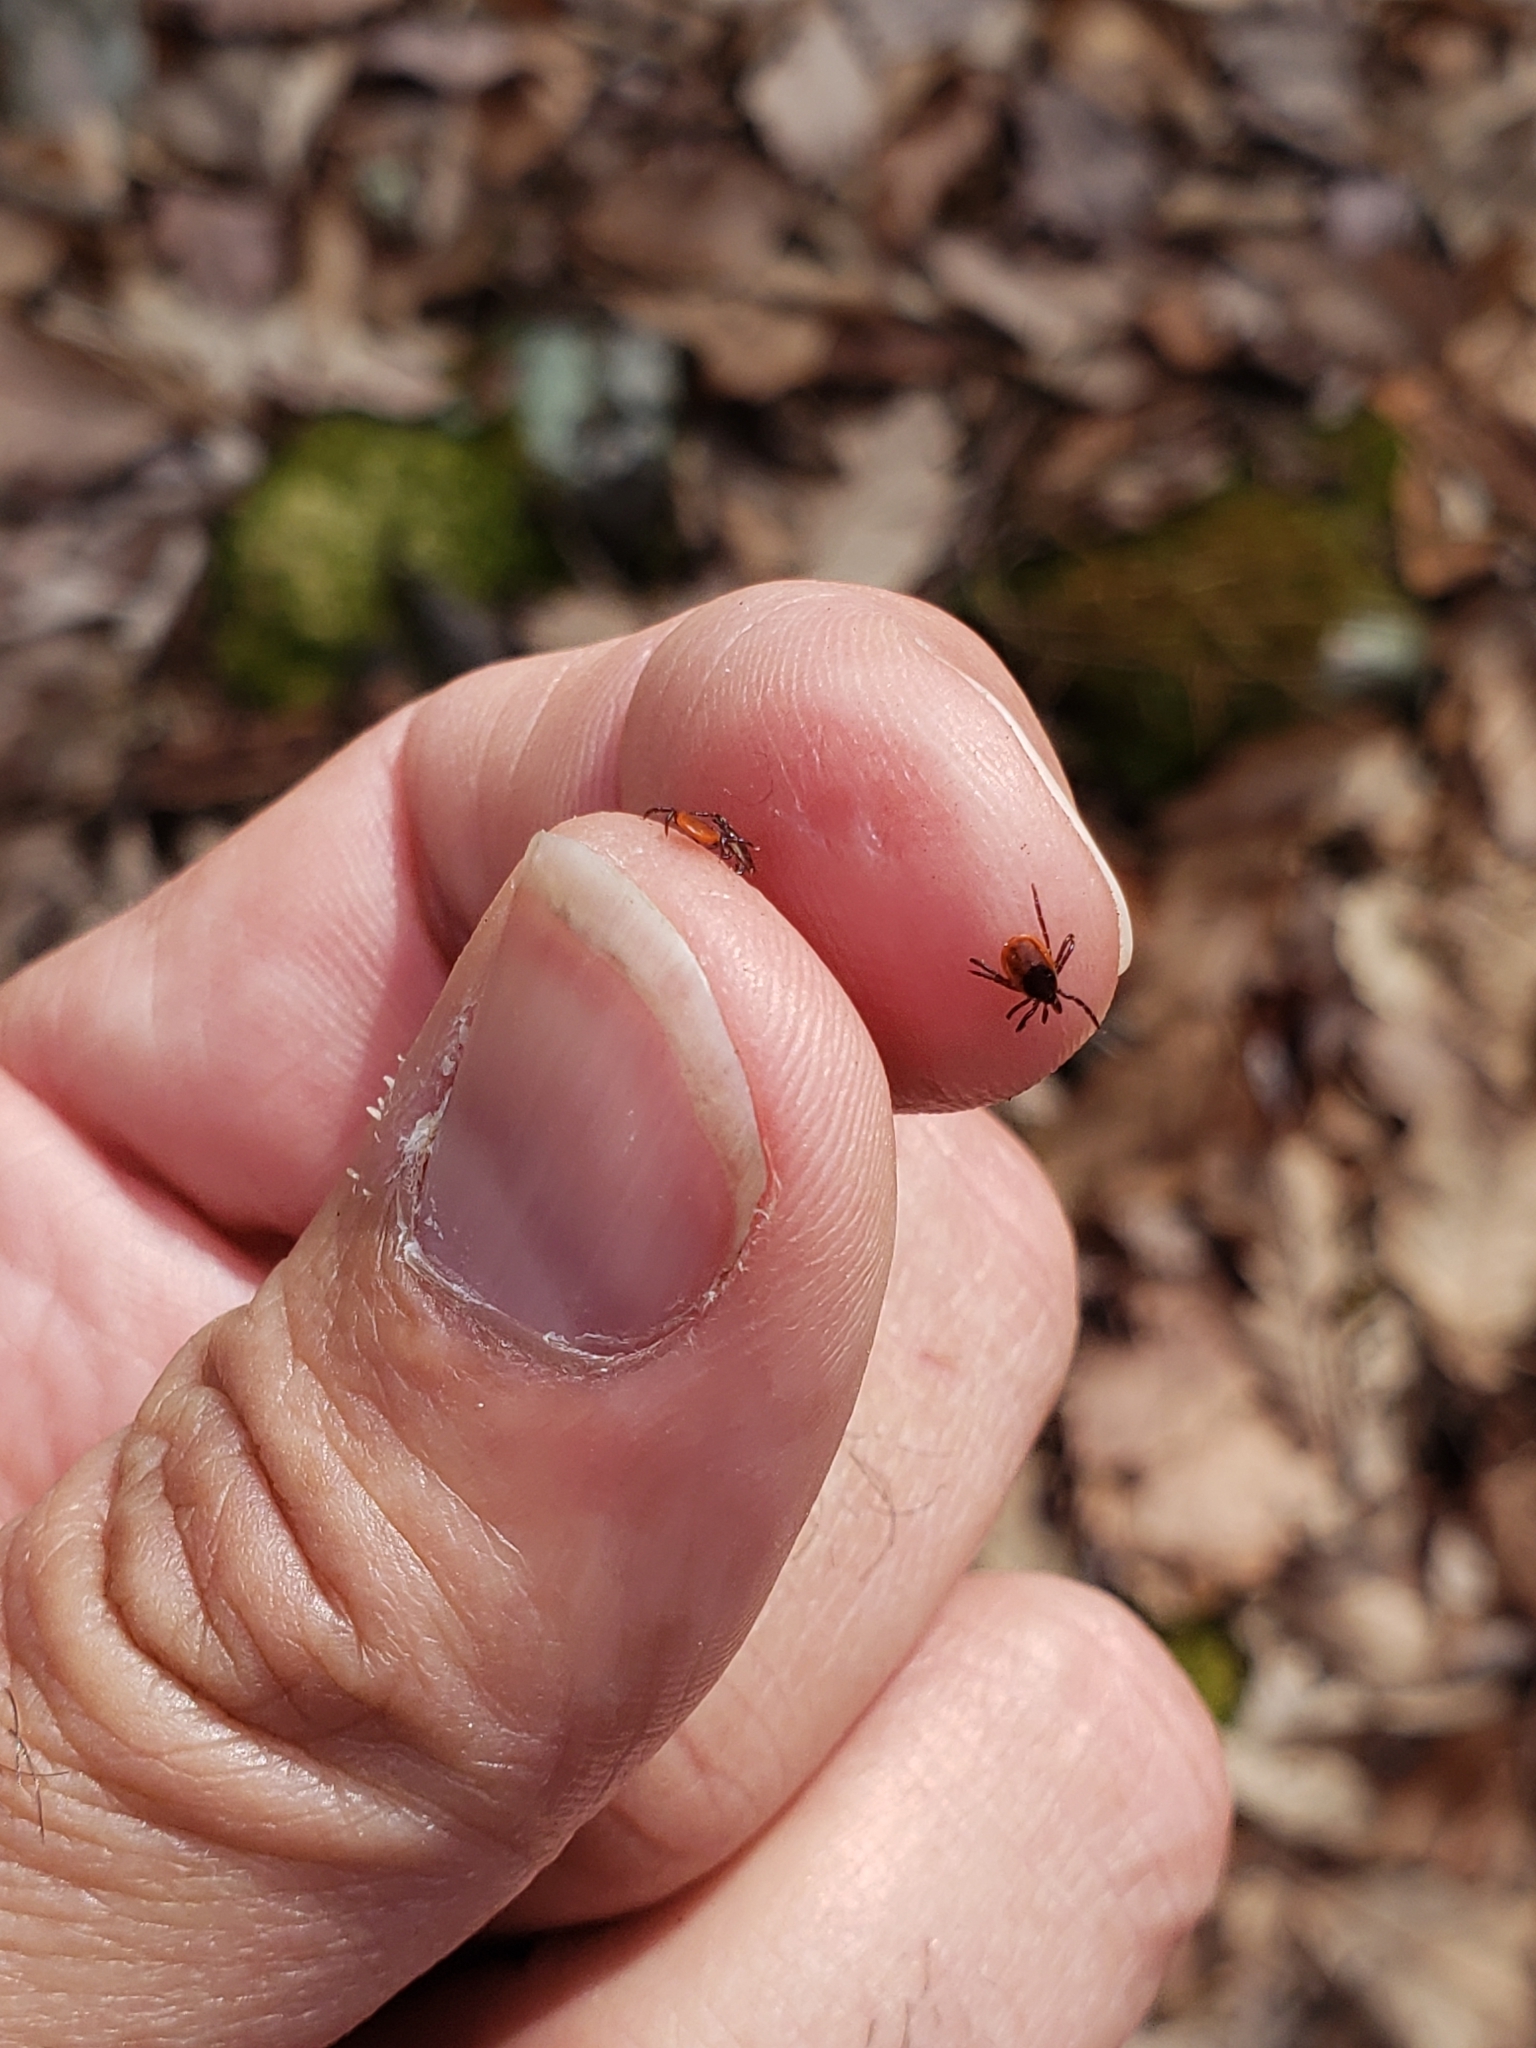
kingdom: Animalia
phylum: Arthropoda
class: Arachnida
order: Ixodida
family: Ixodidae
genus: Ixodes
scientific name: Ixodes scapularis
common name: Black legged tick
